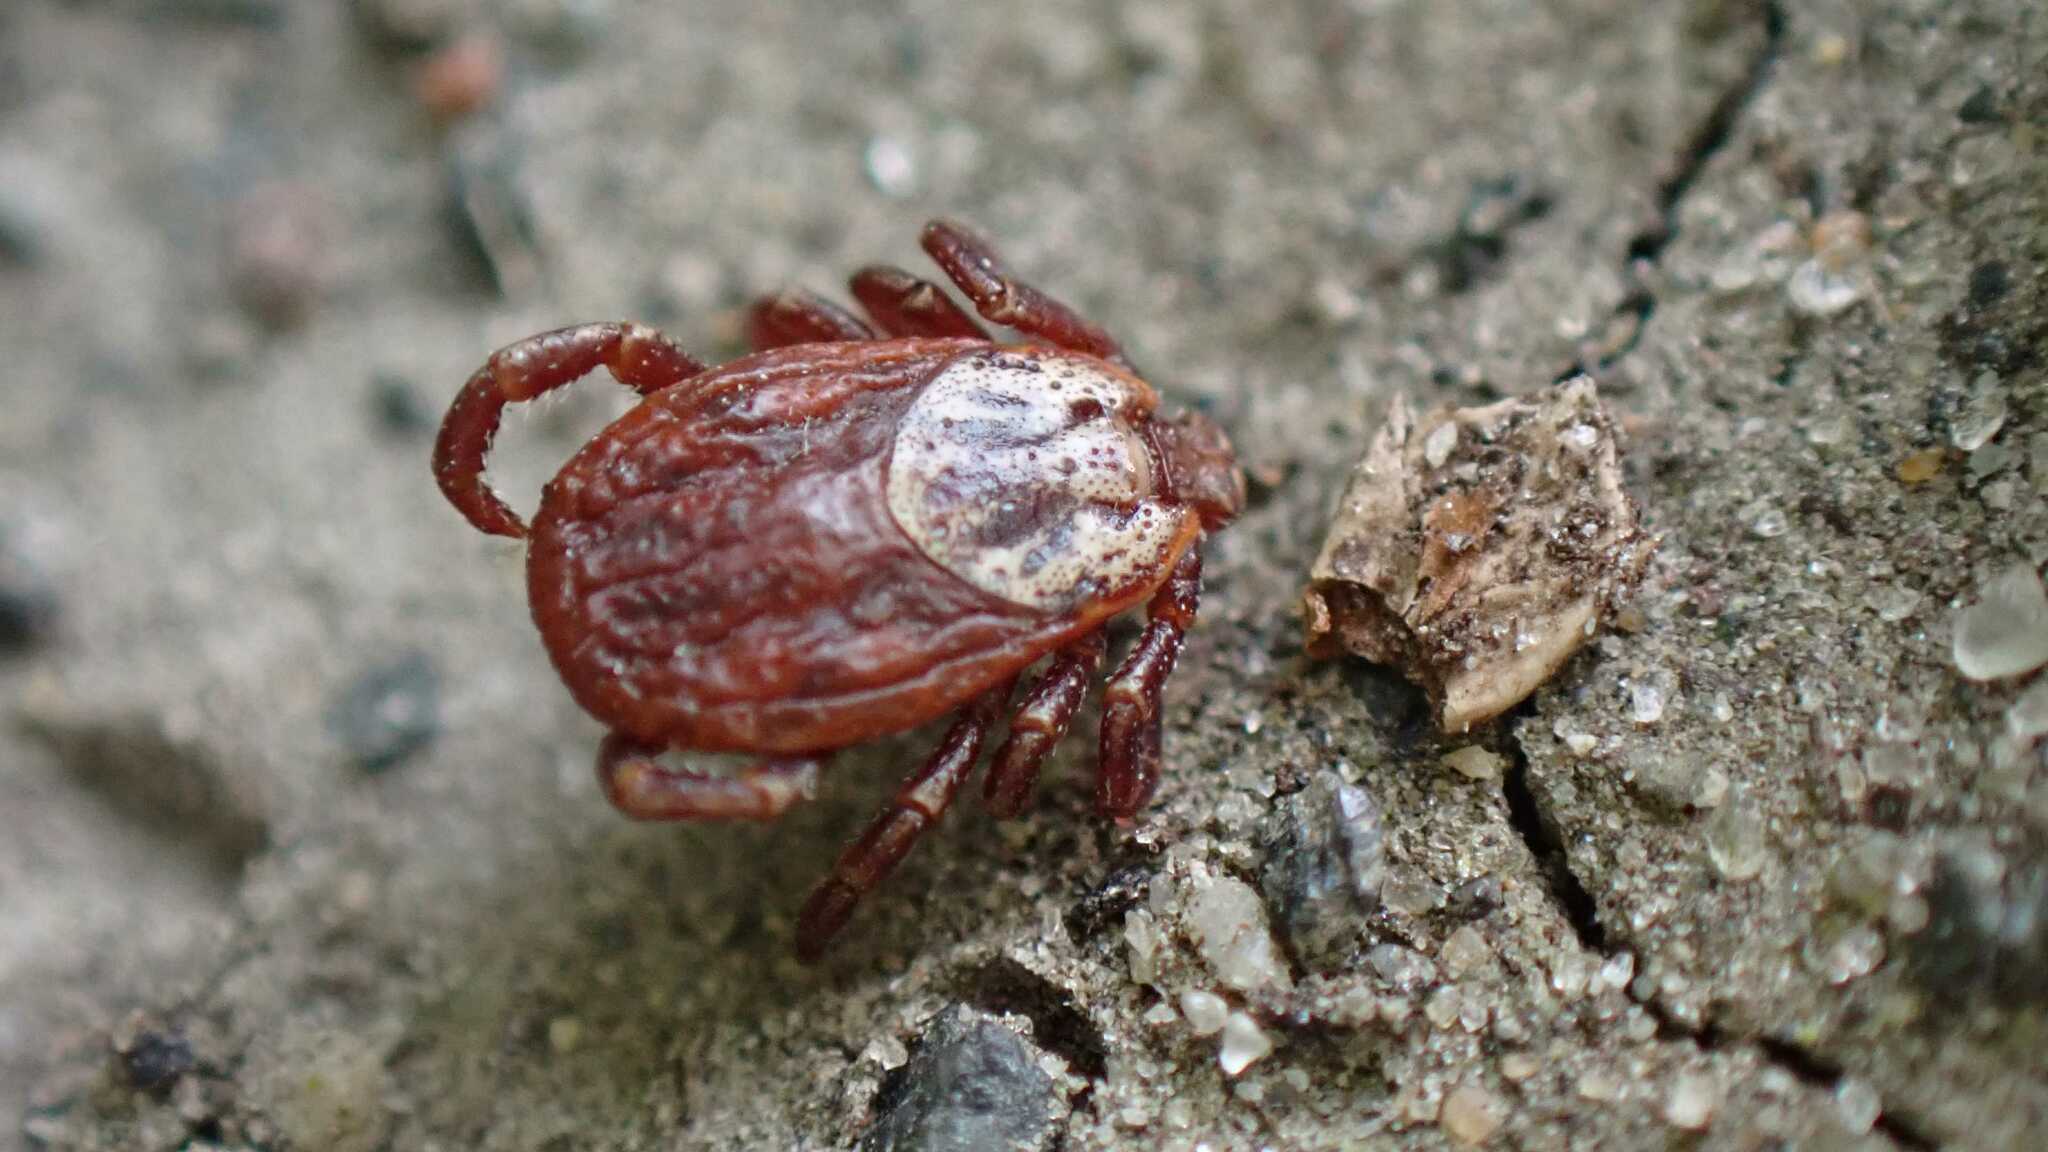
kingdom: Animalia
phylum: Arthropoda
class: Arachnida
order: Ixodida
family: Ixodidae
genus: Dermacentor
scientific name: Dermacentor reticulatus
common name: Ornate cow tick
